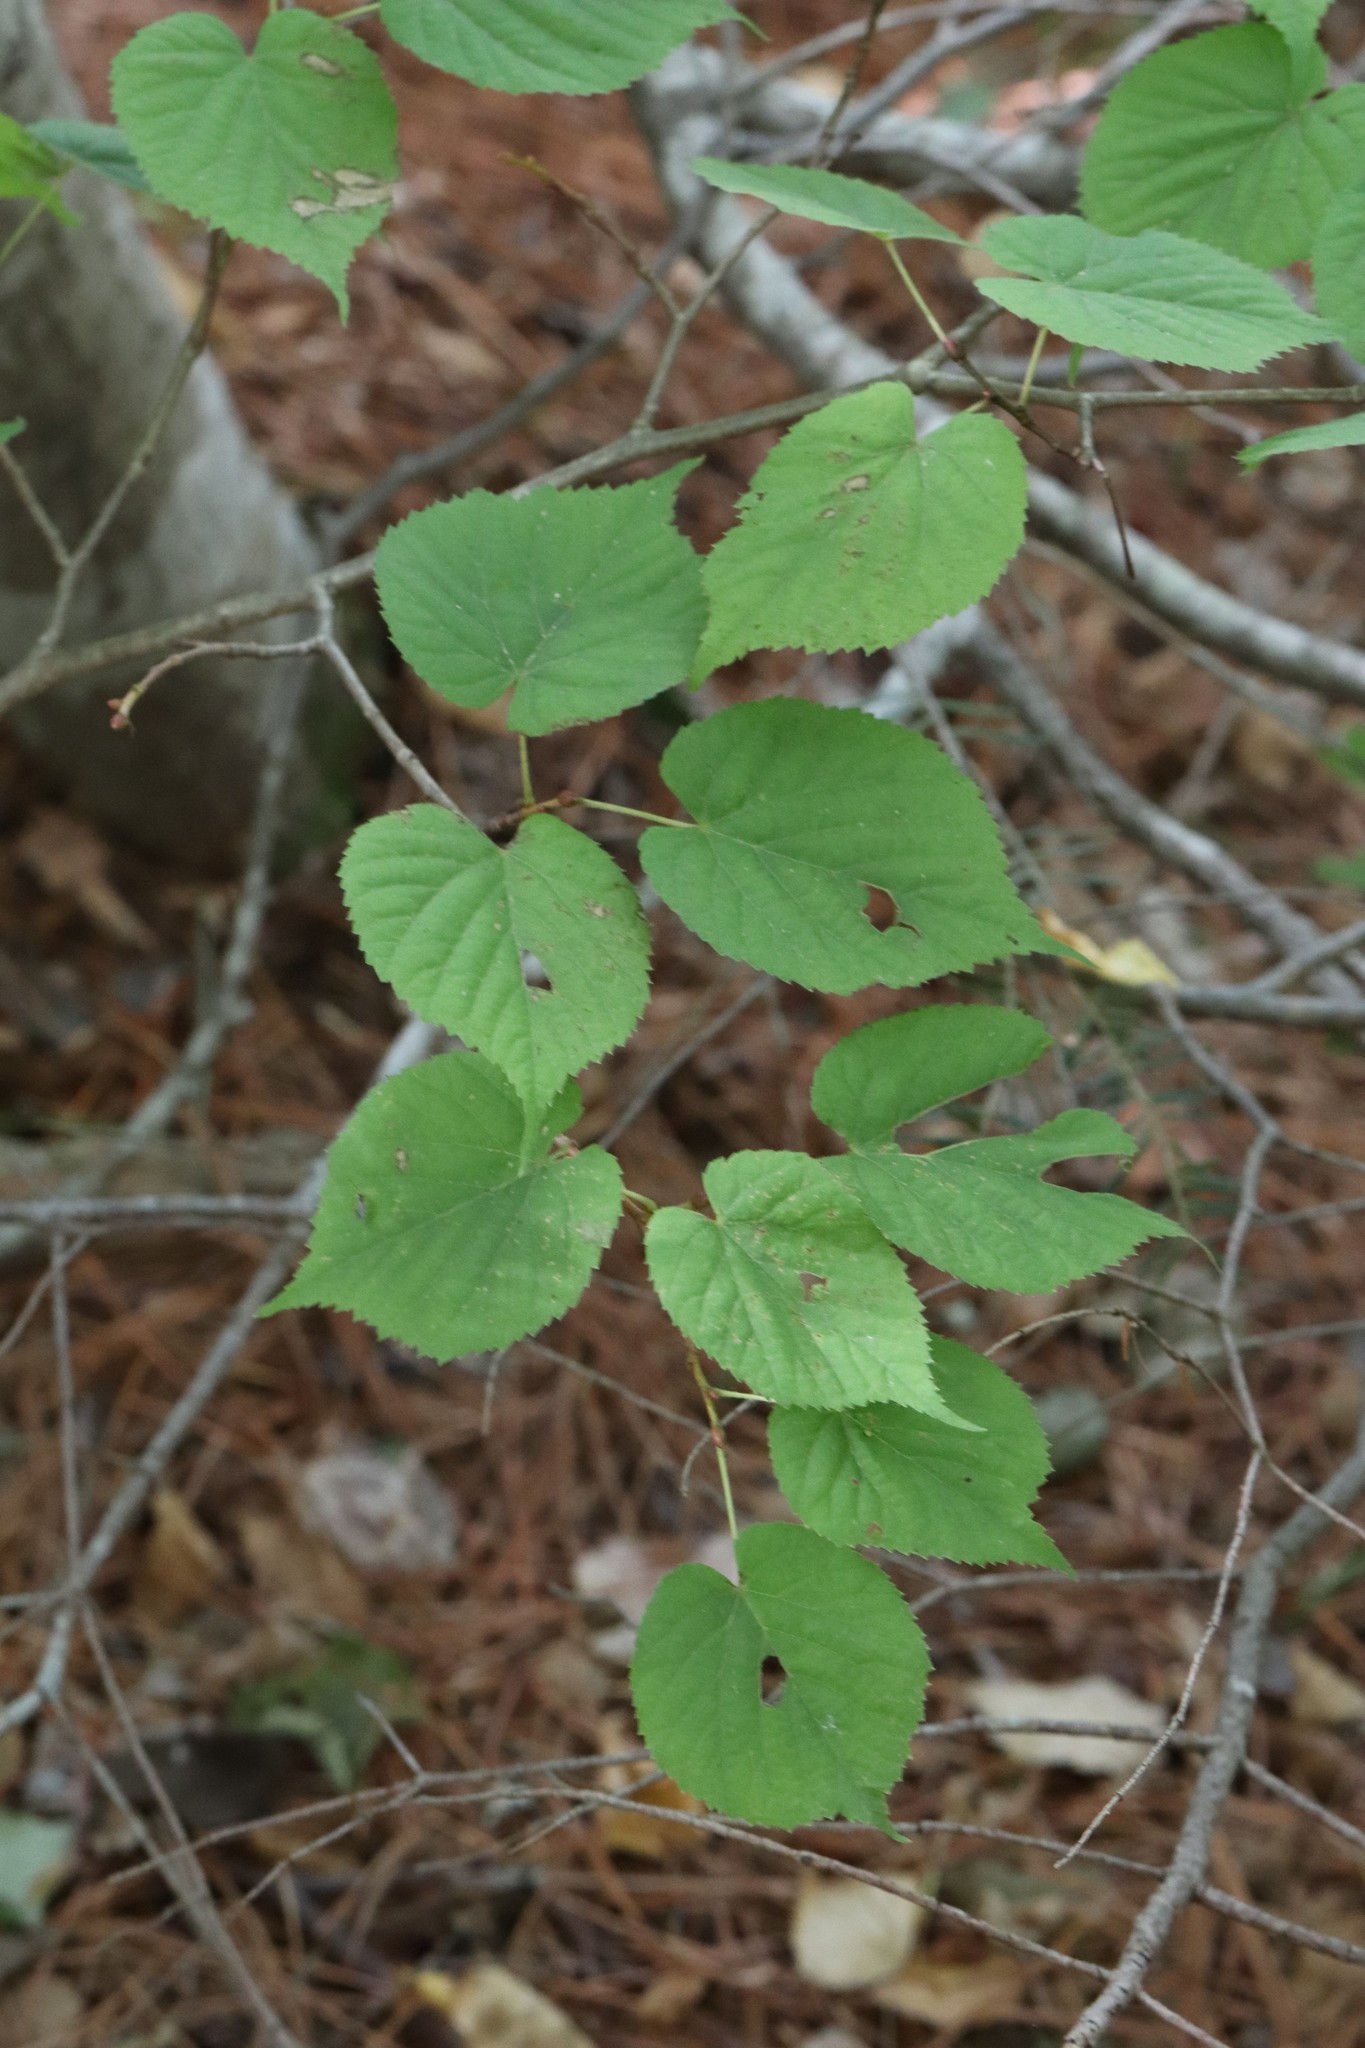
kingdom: Plantae
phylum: Tracheophyta
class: Magnoliopsida
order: Malvales
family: Malvaceae
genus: Tilia
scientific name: Tilia amurensis
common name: Amur lime
